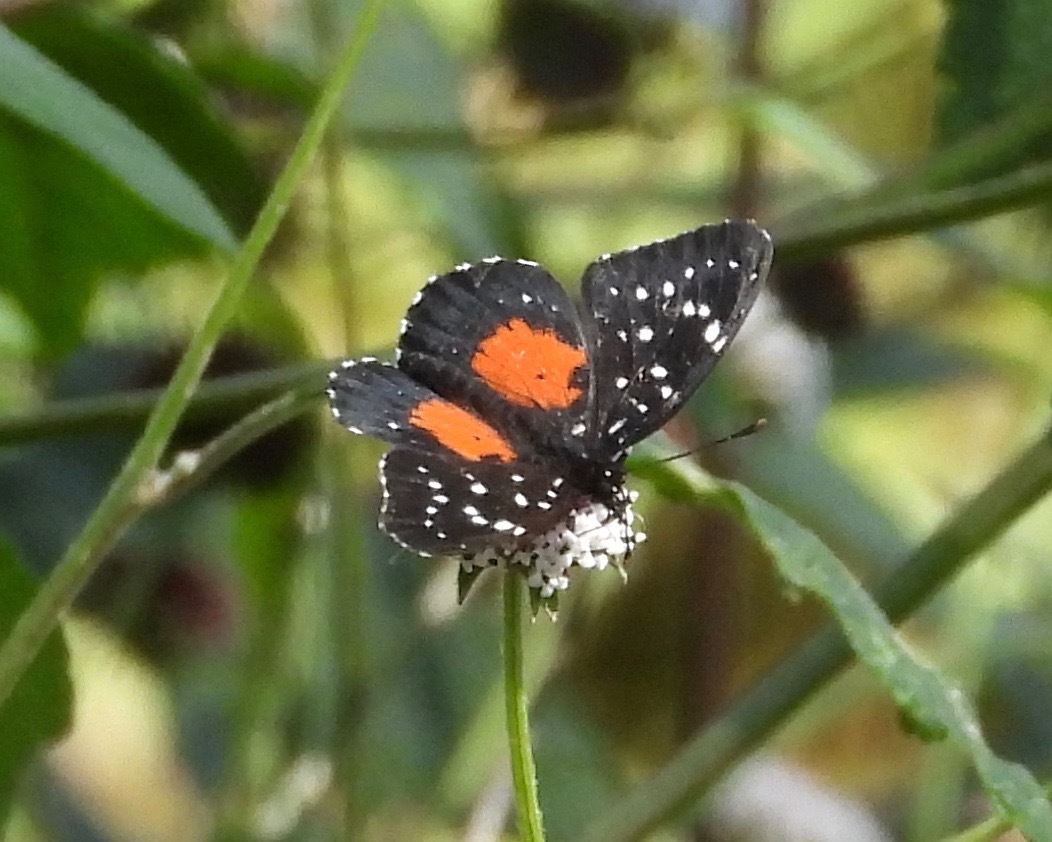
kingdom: Animalia
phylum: Arthropoda
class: Insecta
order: Lepidoptera
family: Nymphalidae
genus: Chlosyne
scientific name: Chlosyne janais
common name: Crimson patch
